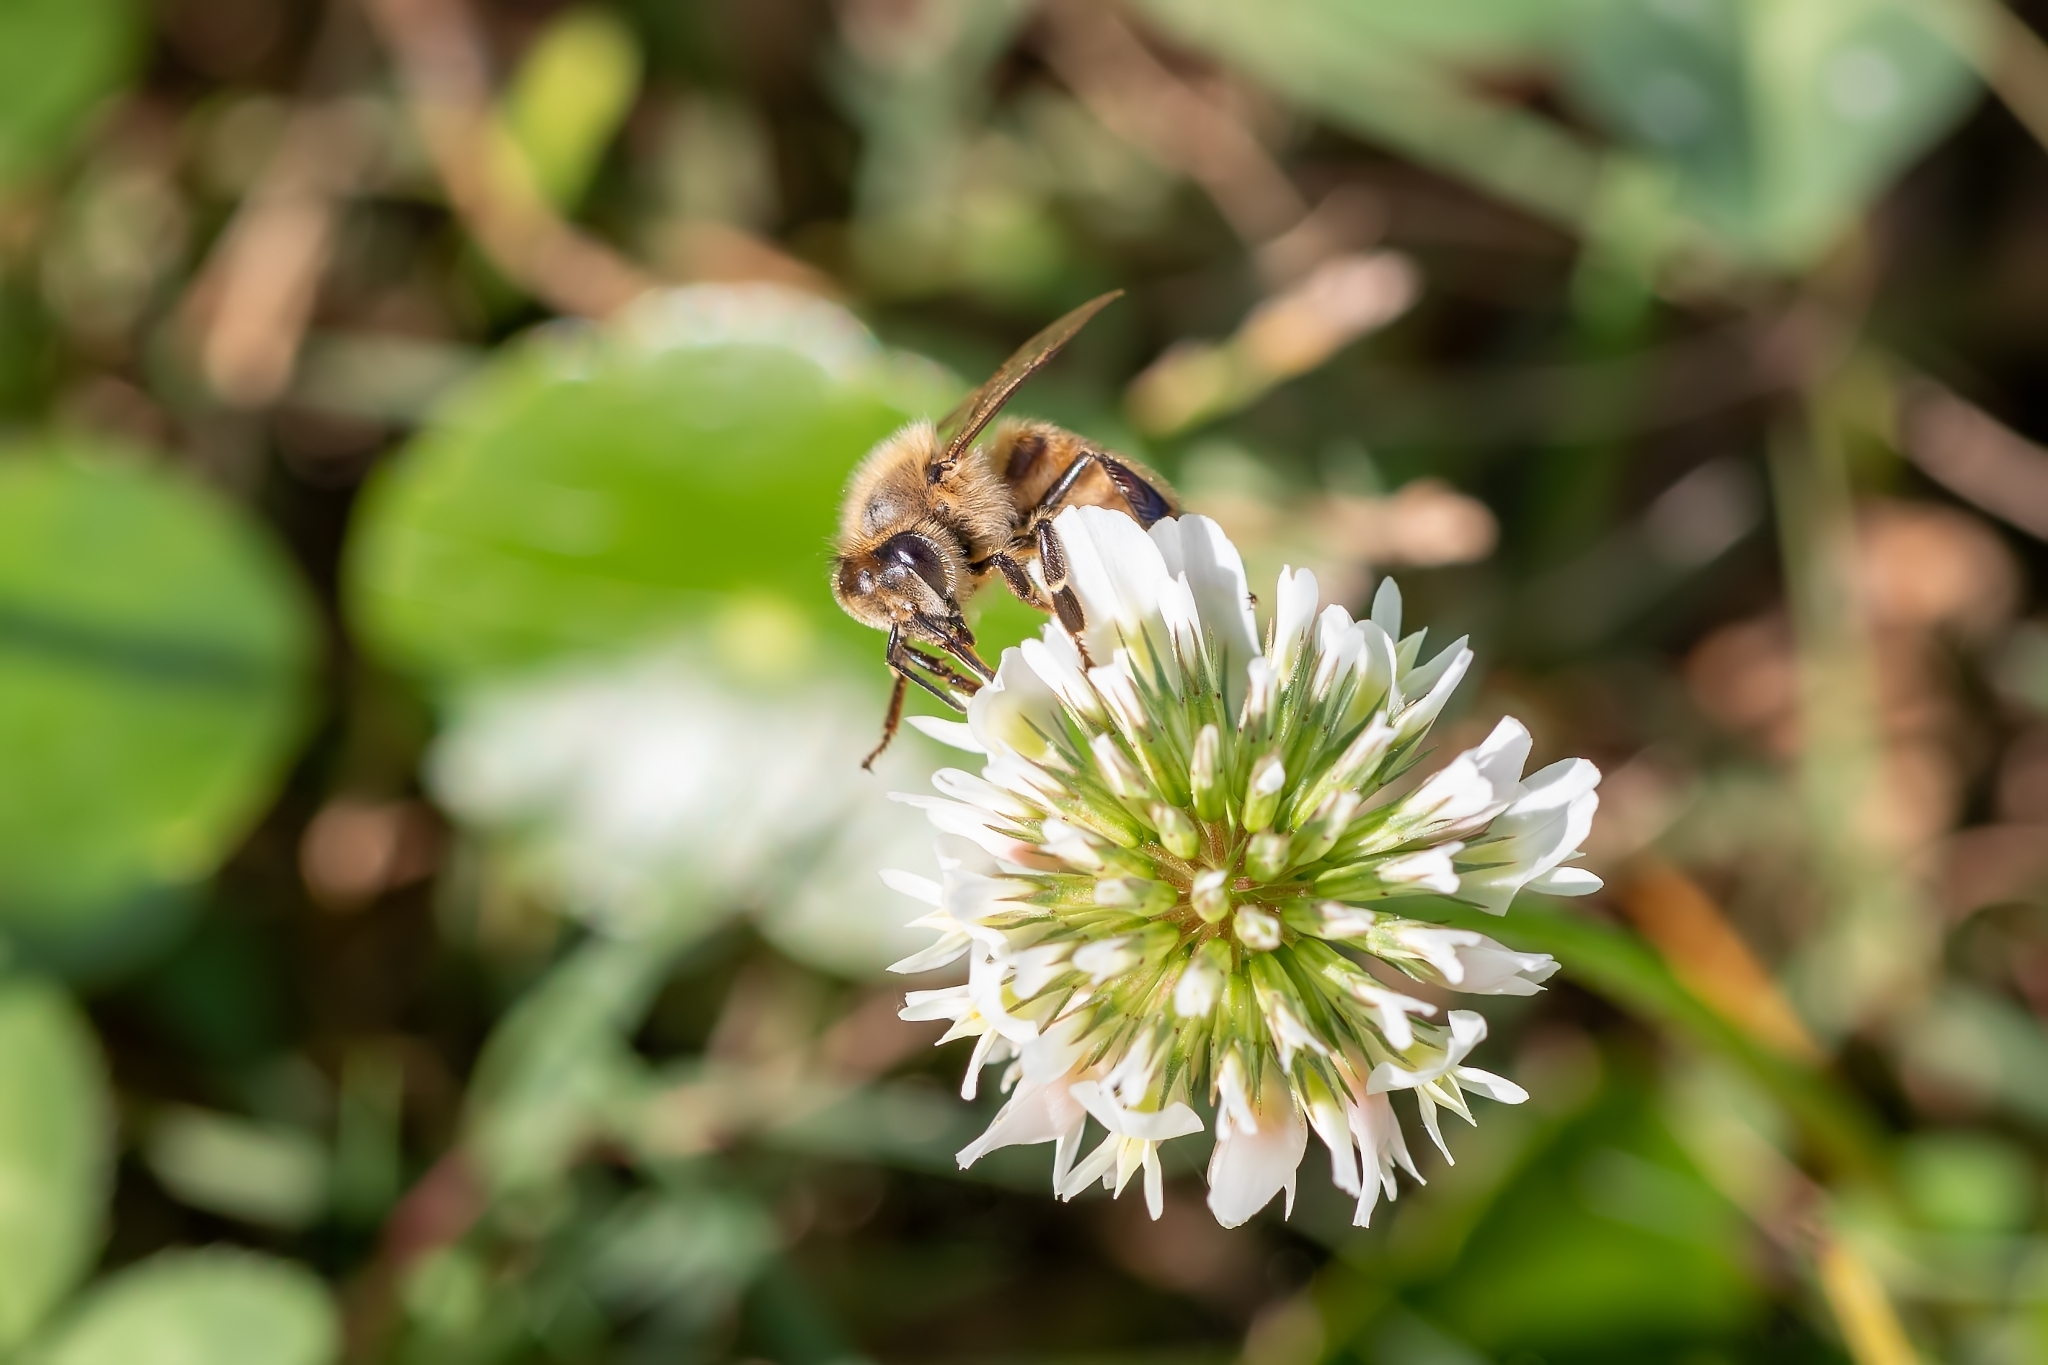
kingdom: Animalia
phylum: Arthropoda
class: Insecta
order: Hymenoptera
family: Apidae
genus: Apis
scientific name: Apis mellifera
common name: Honey bee
